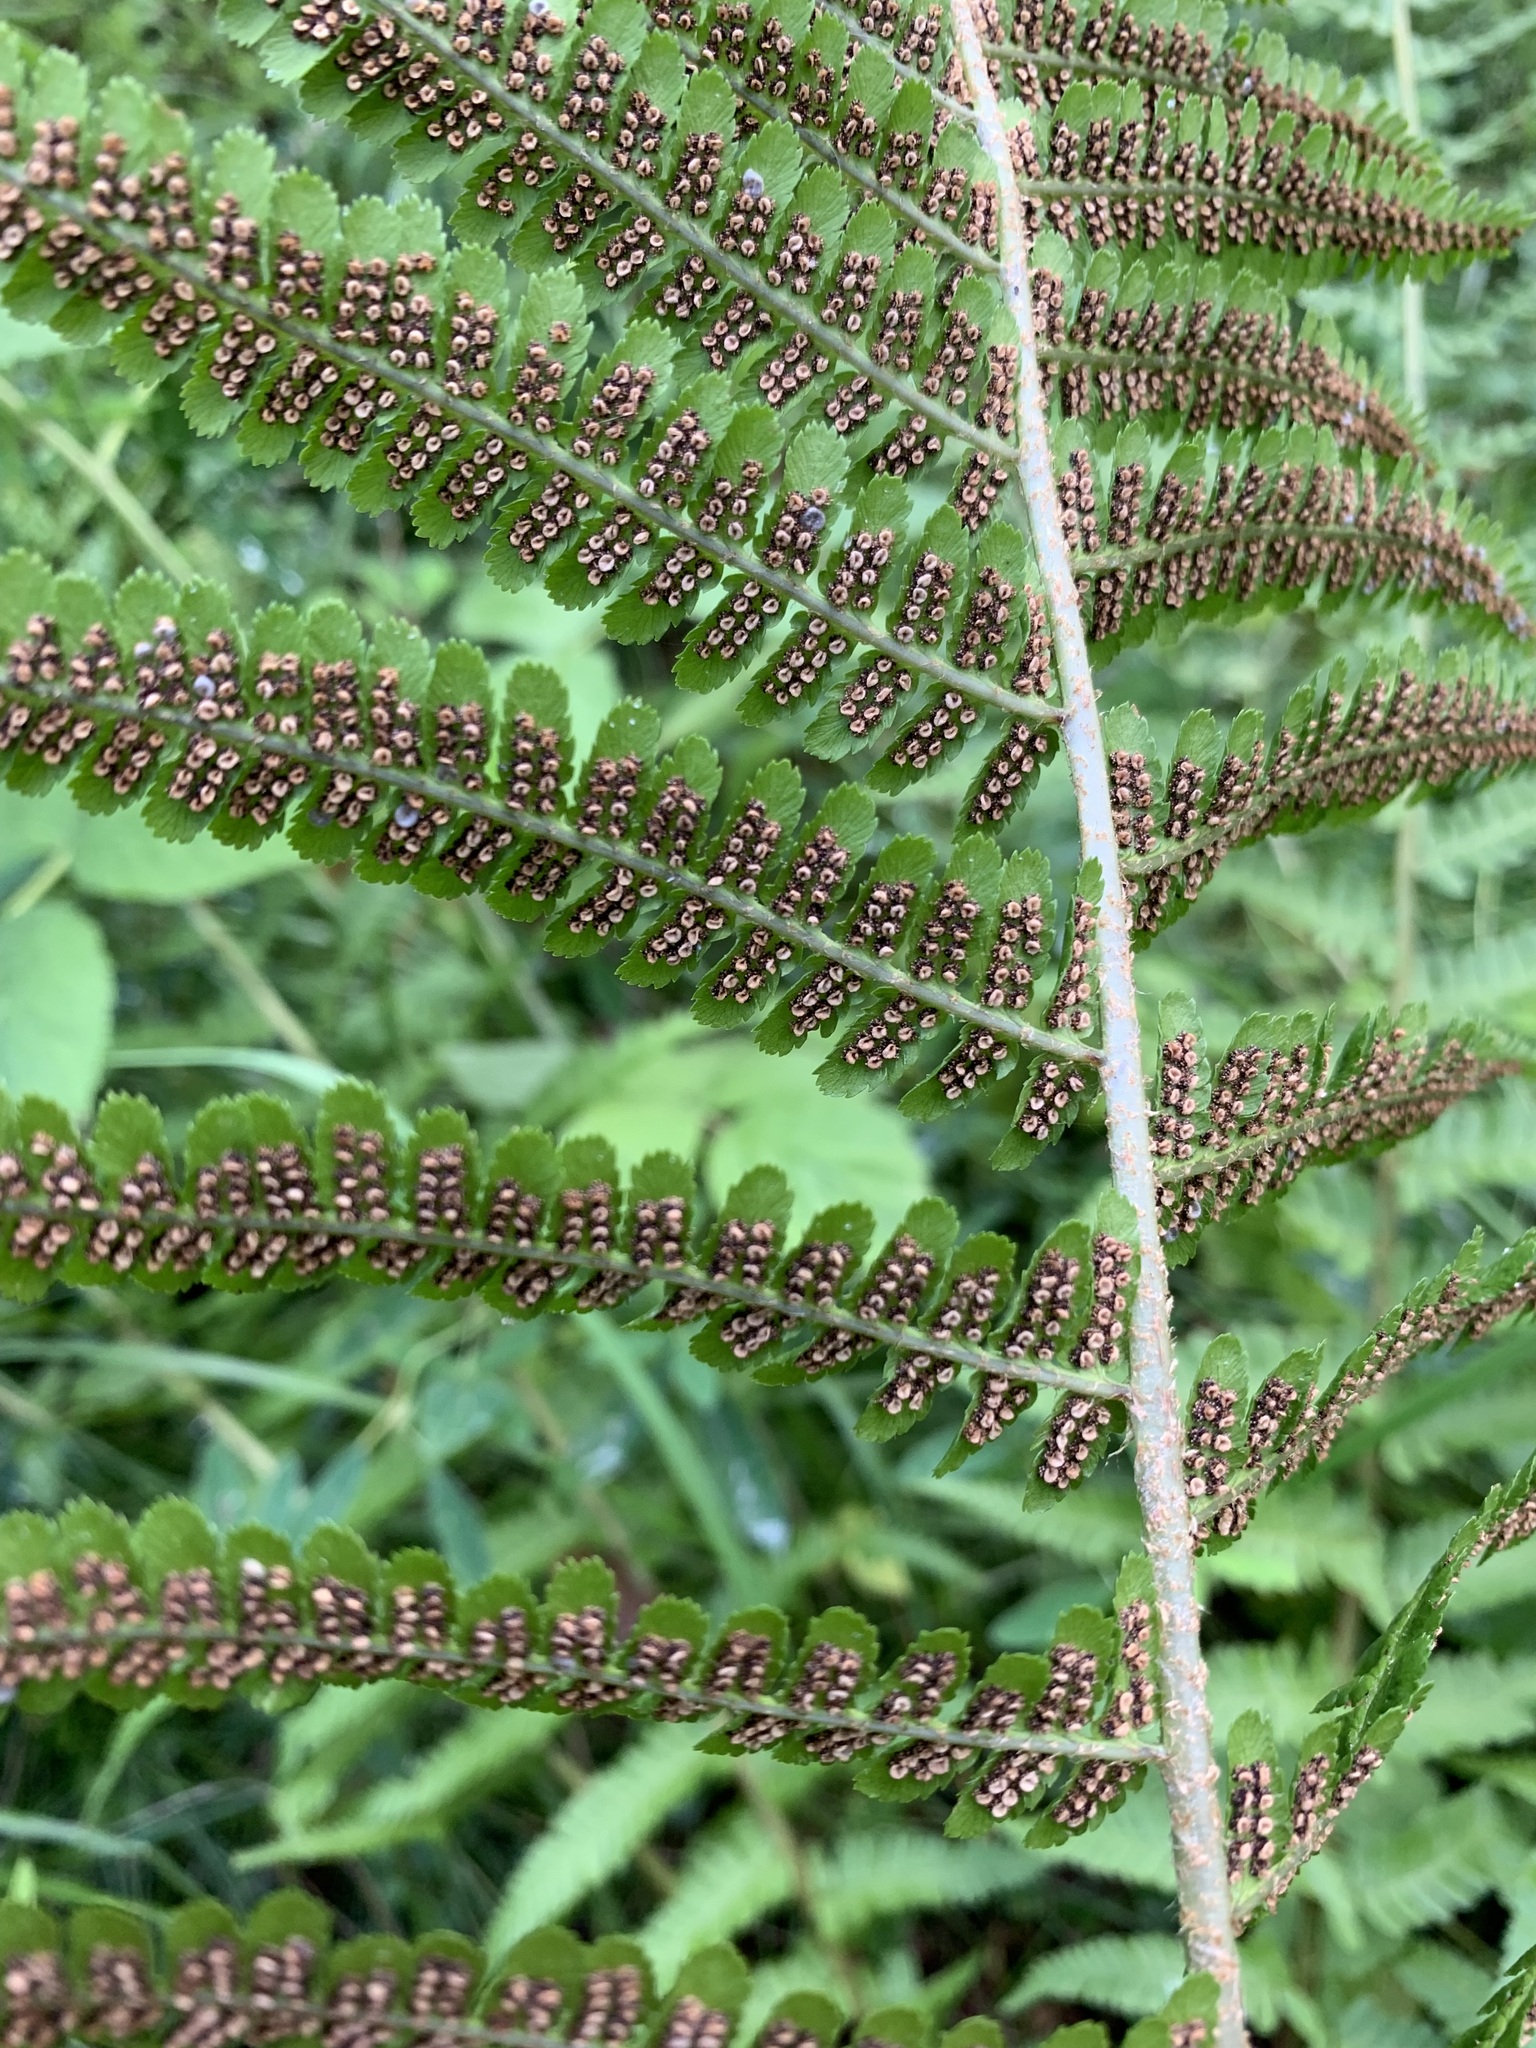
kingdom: Plantae
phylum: Tracheophyta
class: Polypodiopsida
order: Polypodiales
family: Dryopteridaceae
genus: Dryopteris
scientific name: Dryopteris filix-mas
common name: Male fern
